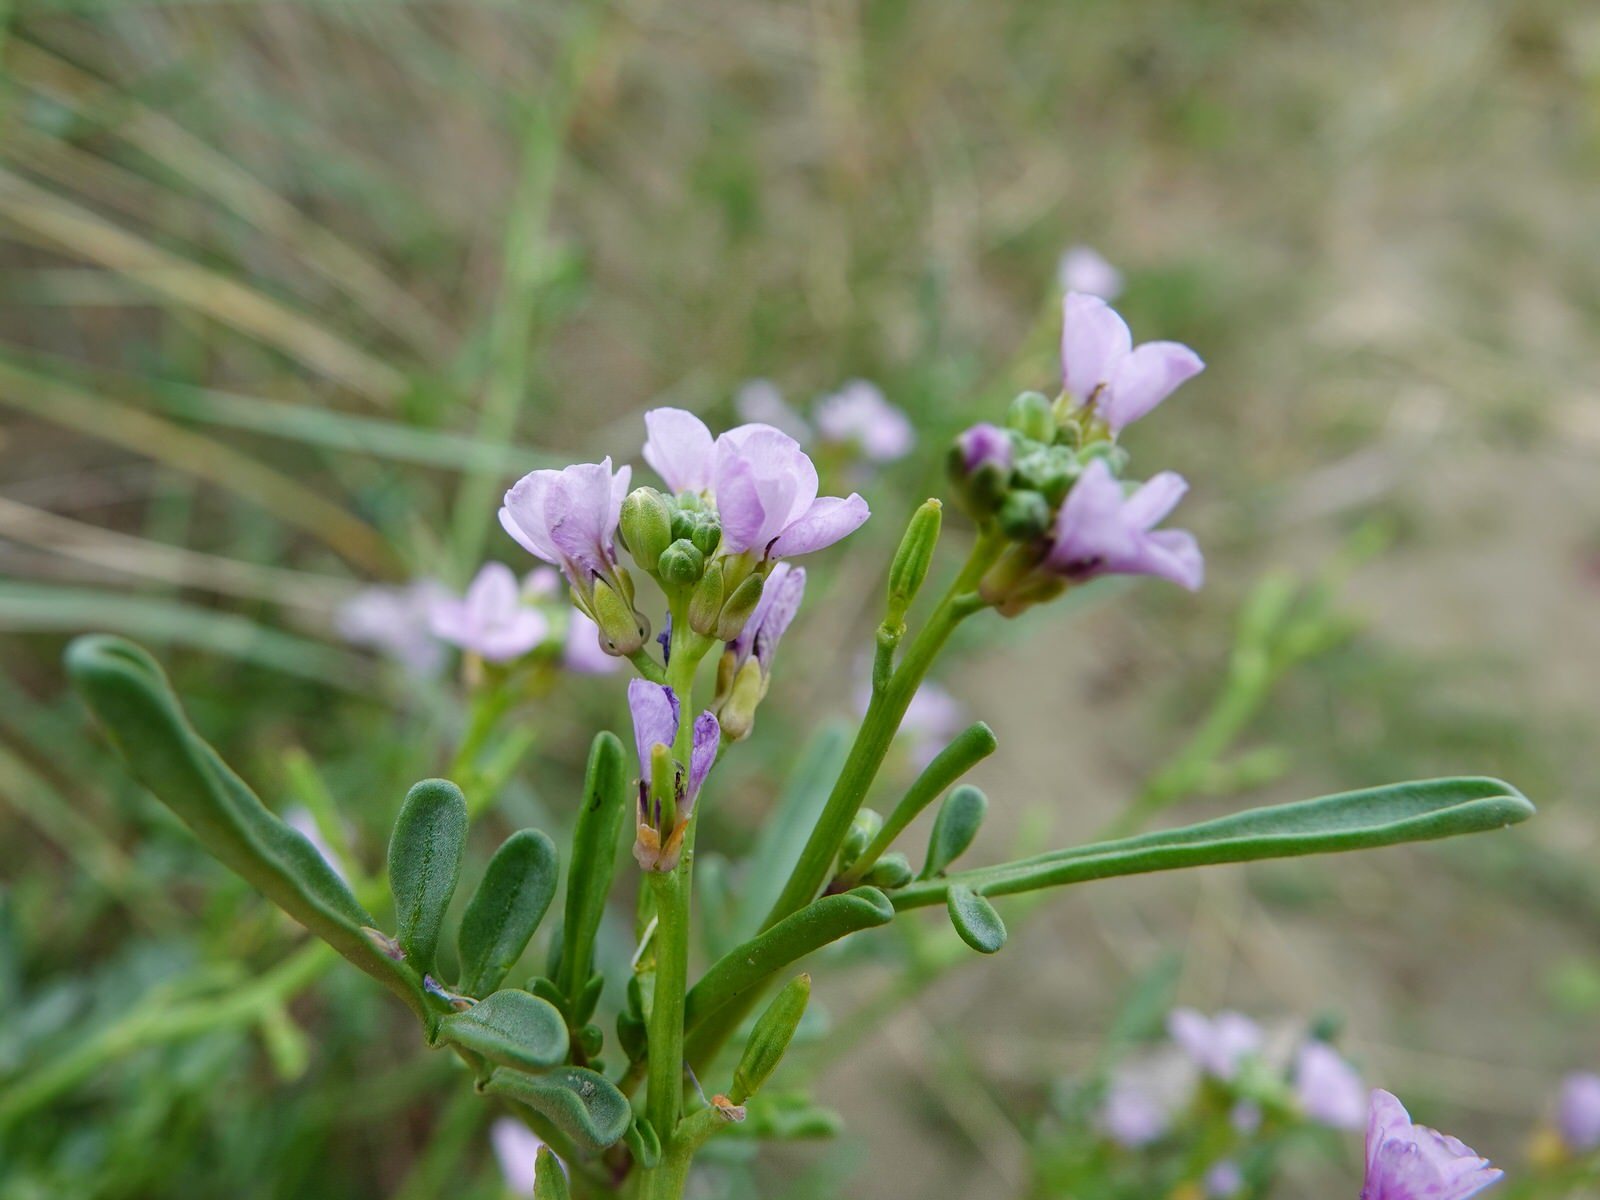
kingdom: Plantae
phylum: Tracheophyta
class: Magnoliopsida
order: Brassicales
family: Brassicaceae
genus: Cakile
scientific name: Cakile edentula
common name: American sea rocket
